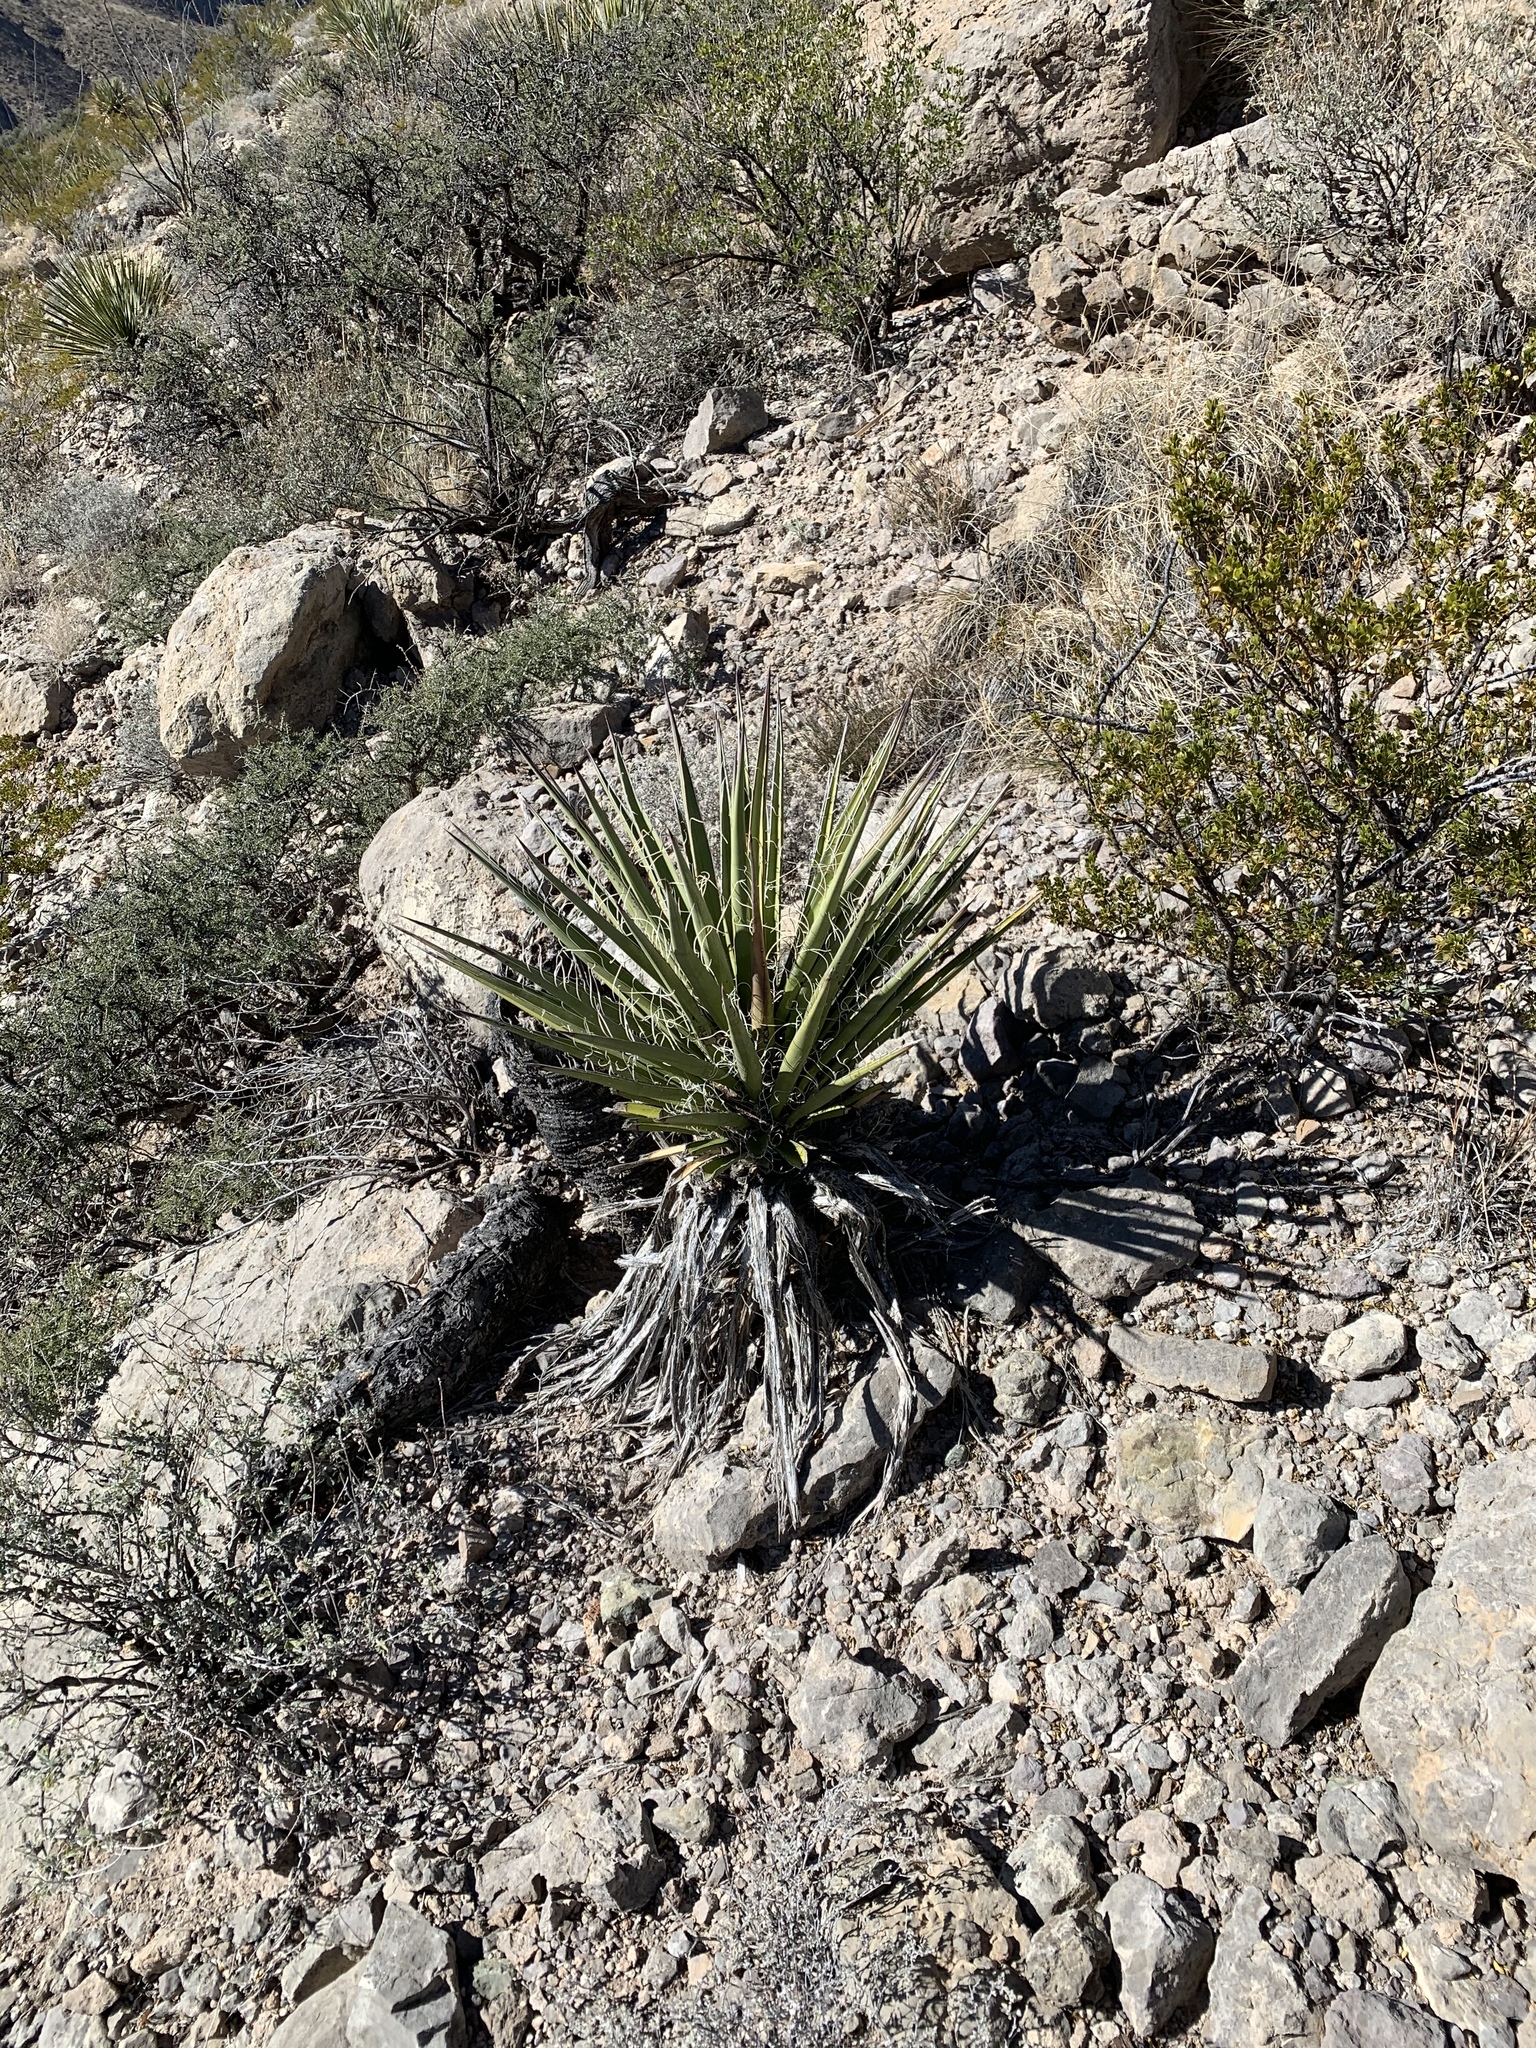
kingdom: Plantae
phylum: Tracheophyta
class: Liliopsida
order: Asparagales
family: Asparagaceae
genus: Yucca
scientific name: Yucca treculiana
